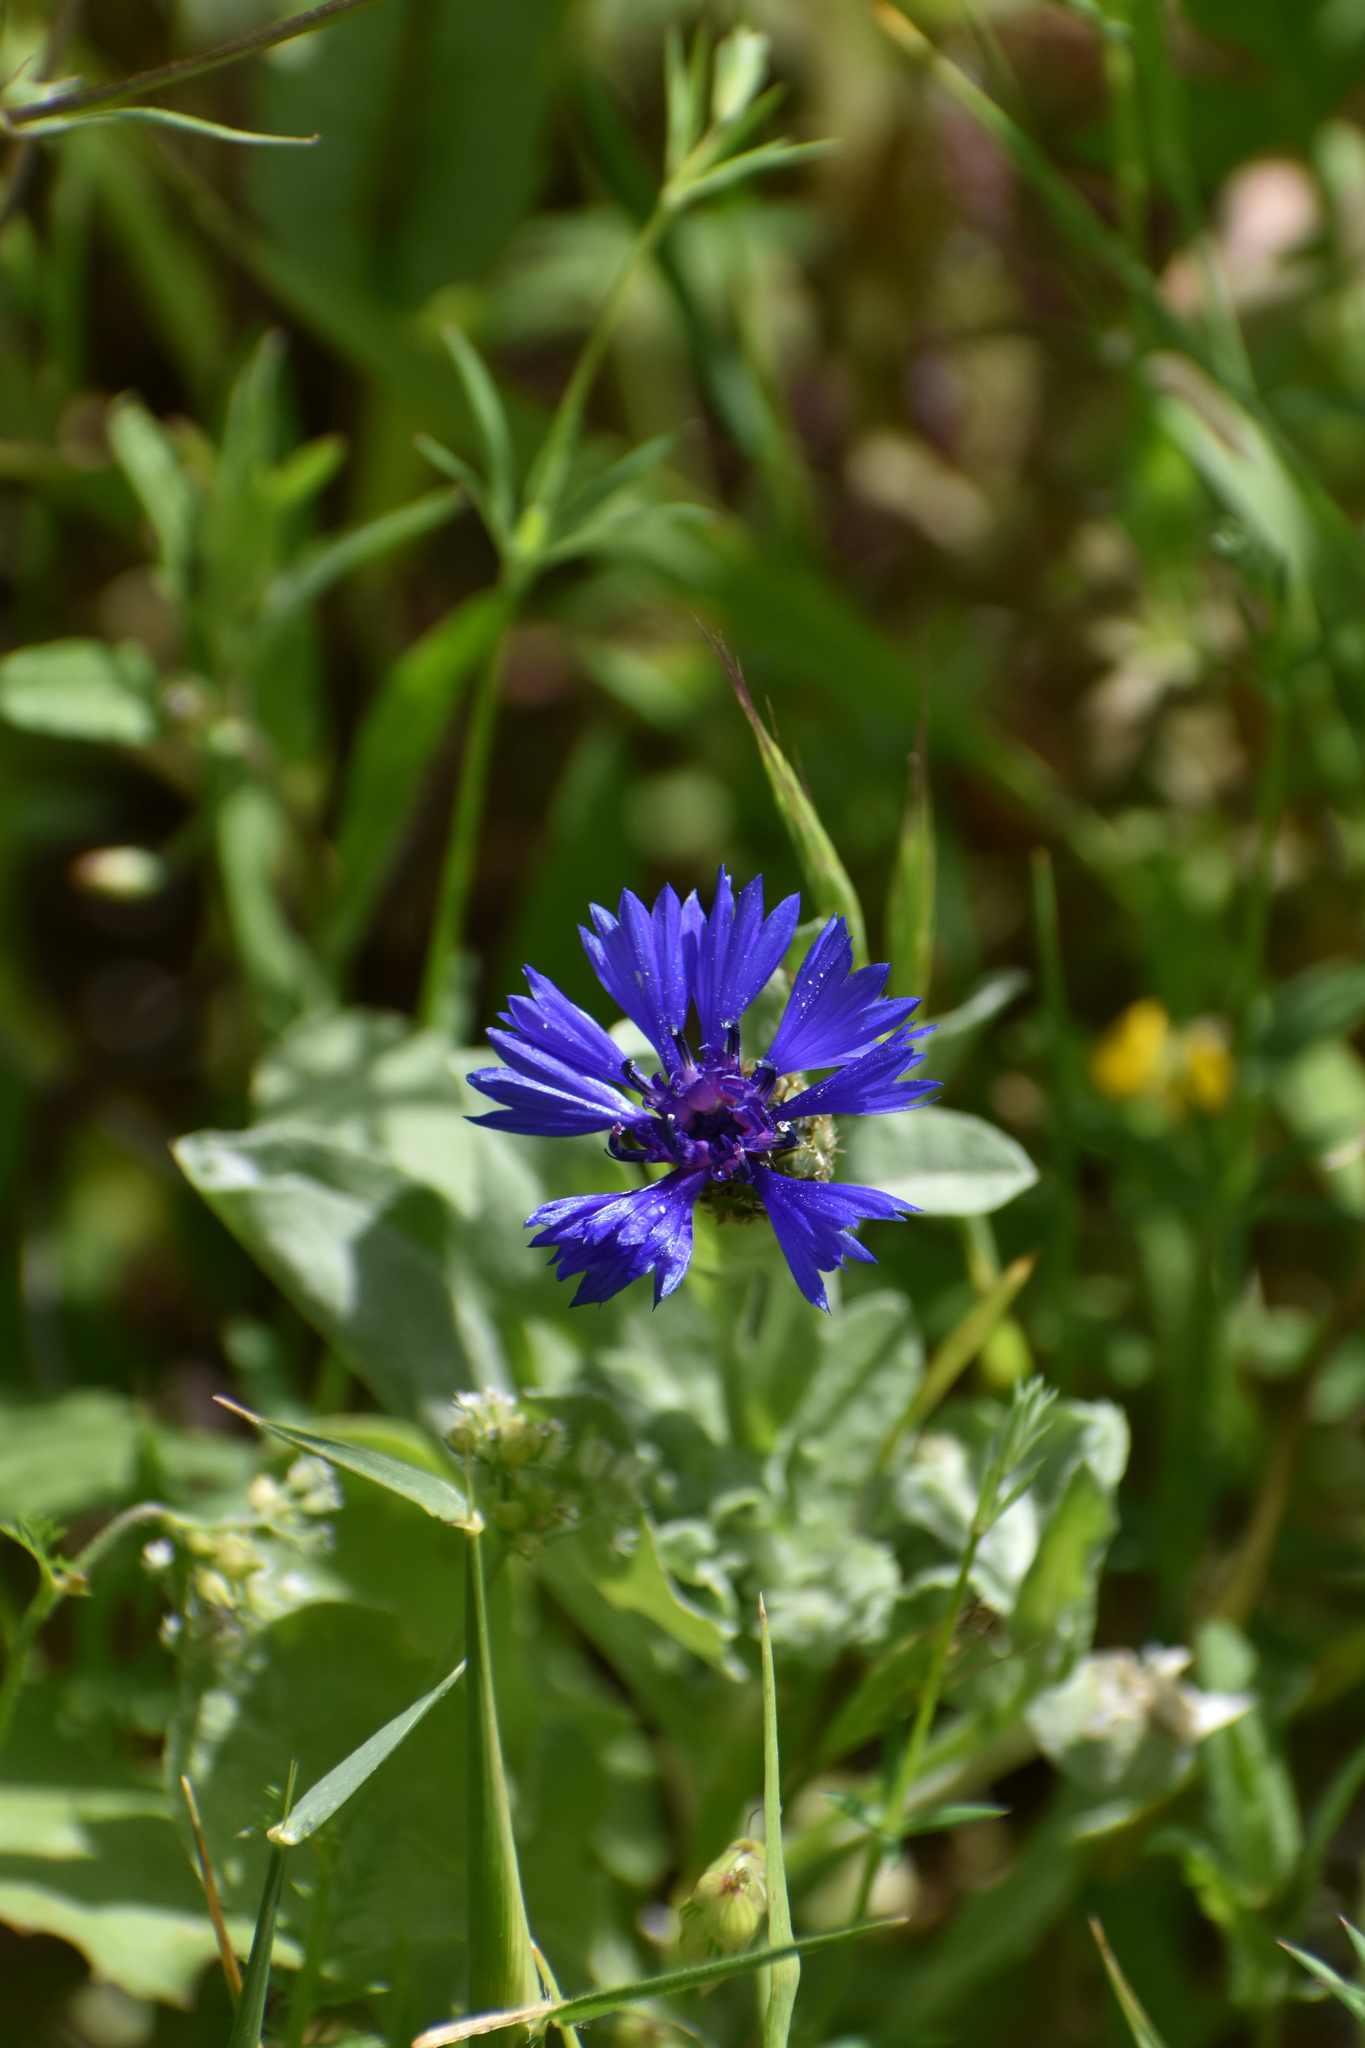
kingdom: Plantae
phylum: Tracheophyta
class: Magnoliopsida
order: Asterales
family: Asteraceae
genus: Centaurea
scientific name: Centaurea cyanoides
